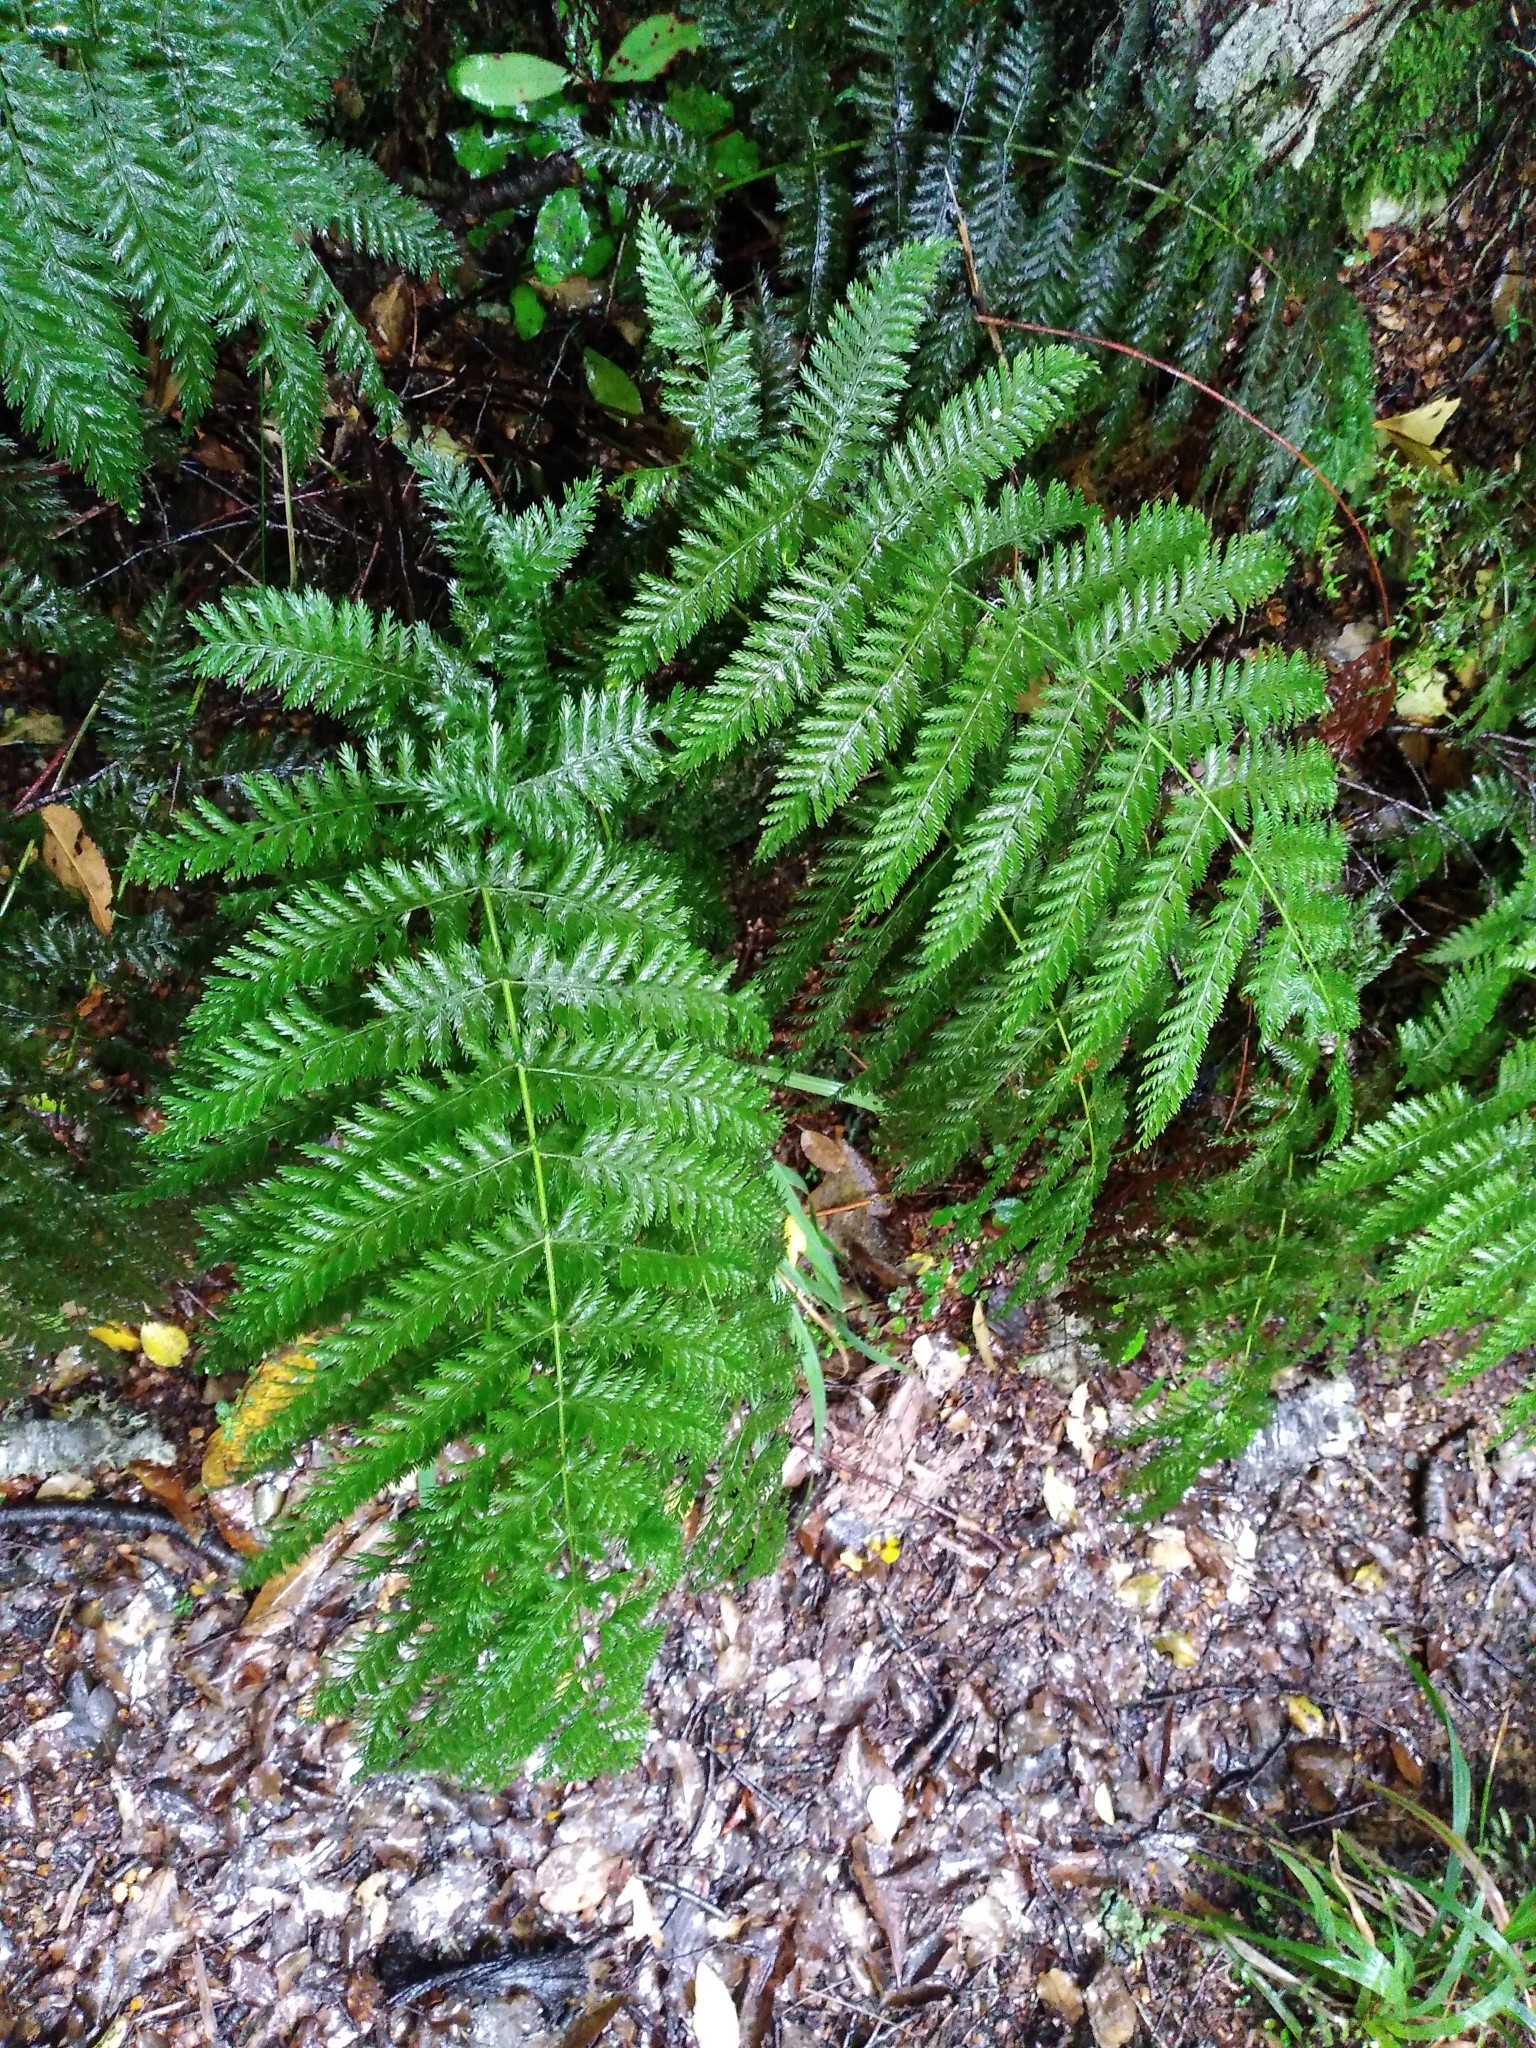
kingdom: Plantae
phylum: Tracheophyta
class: Polypodiopsida
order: Osmundales
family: Osmundaceae
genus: Leptopteris
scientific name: Leptopteris hymenophylloides
